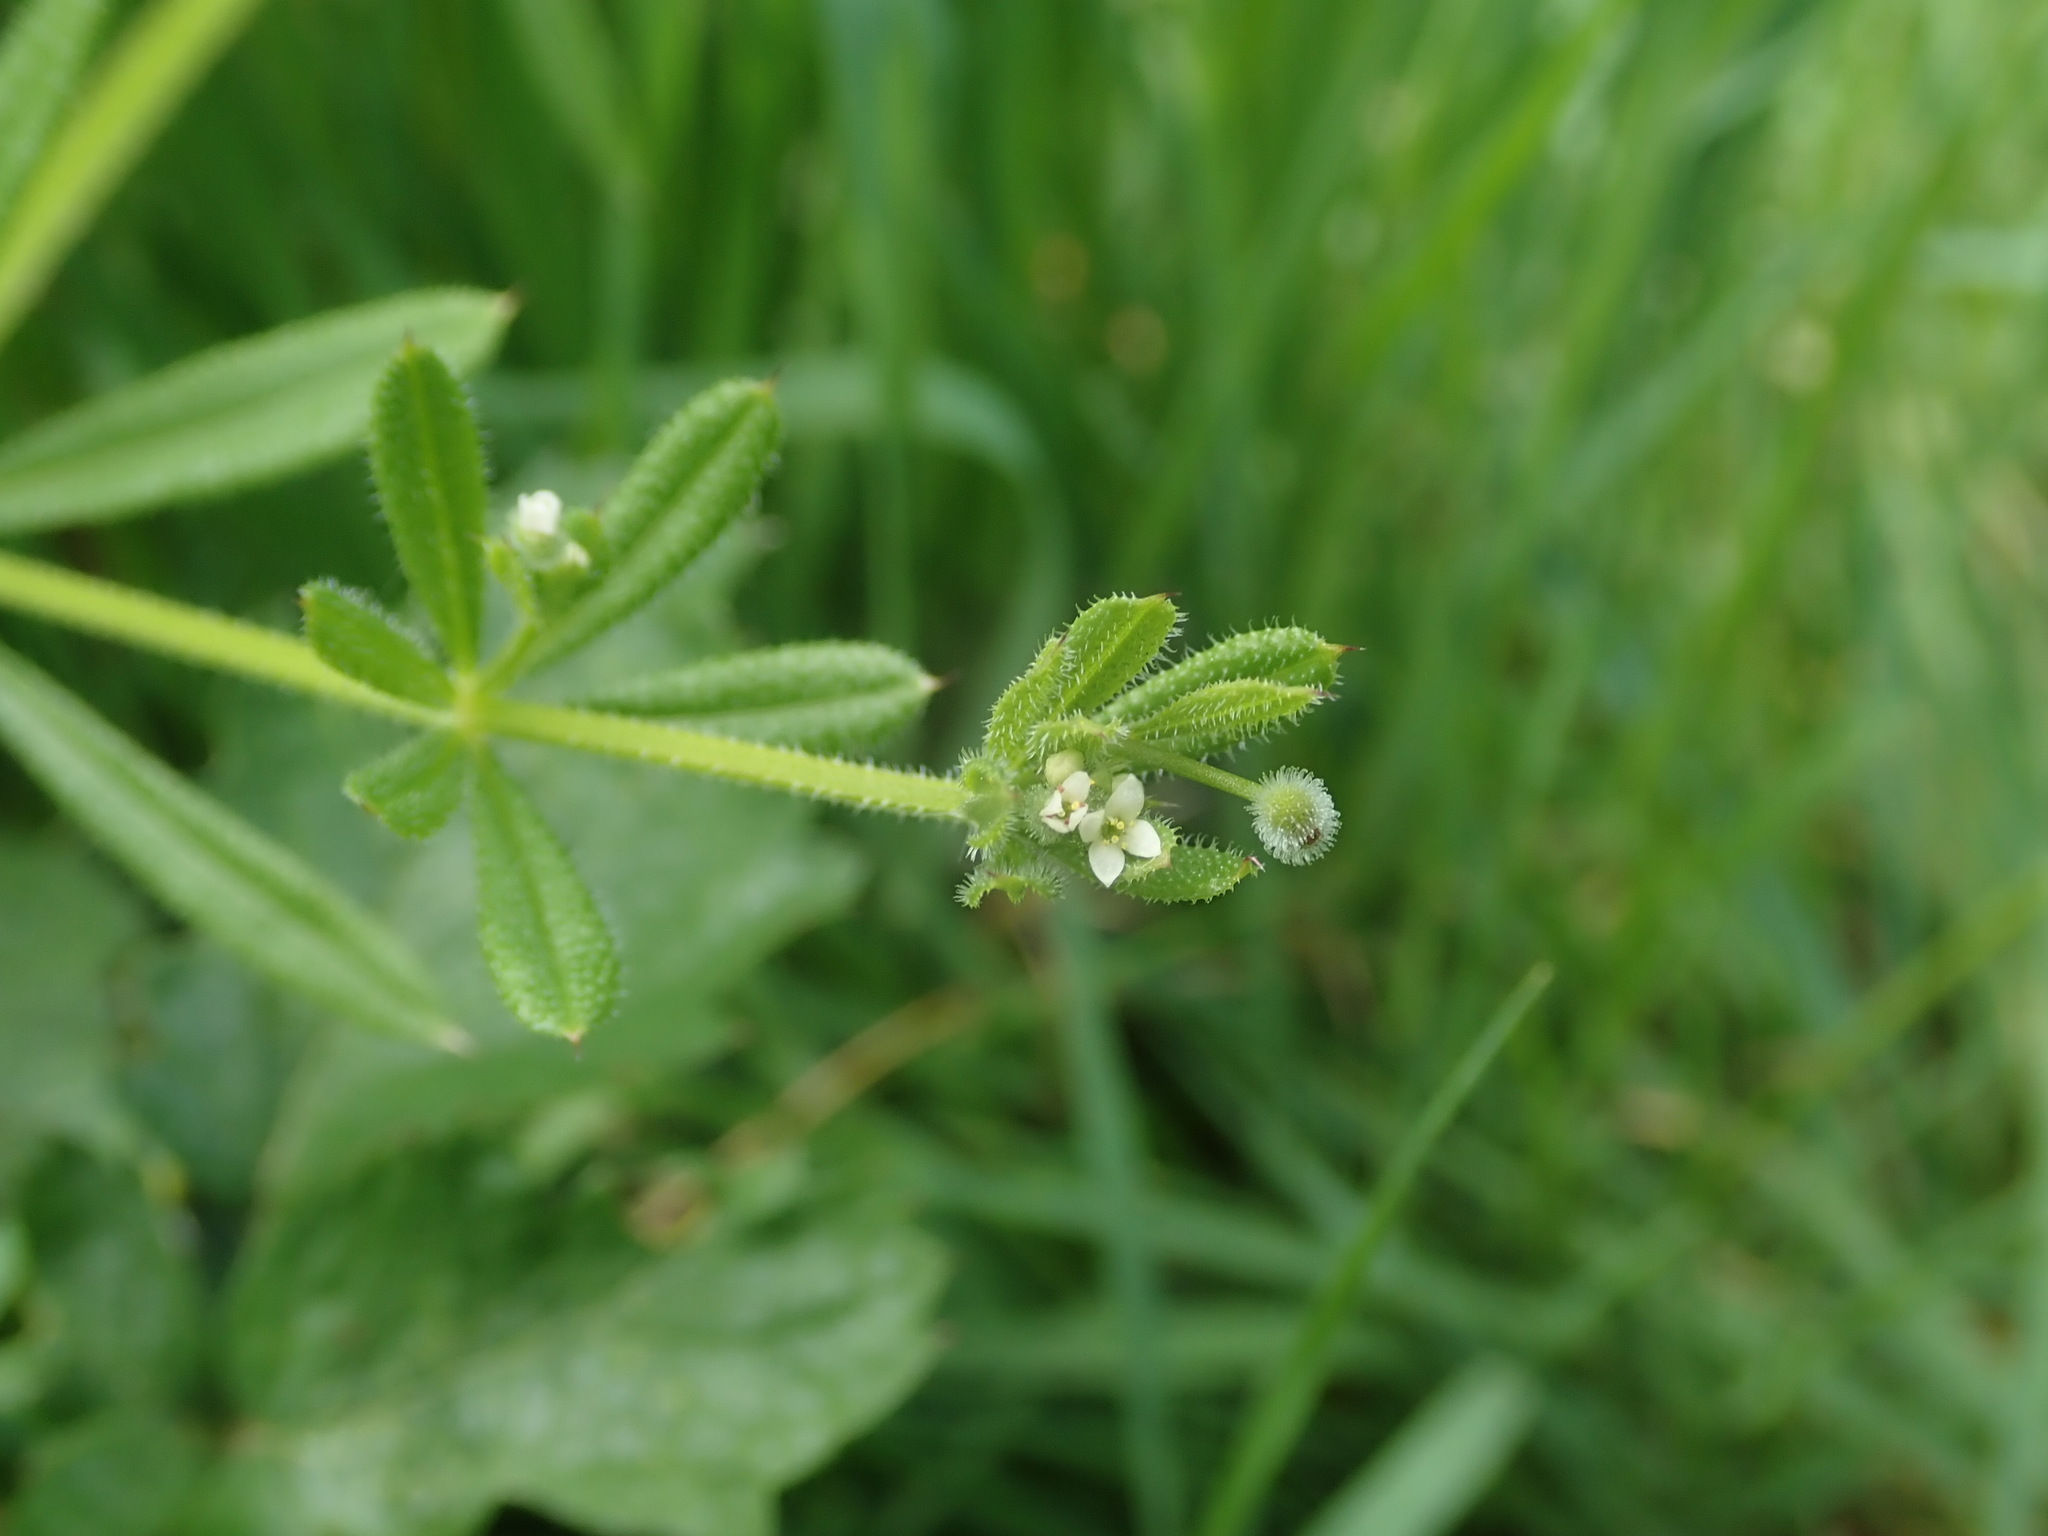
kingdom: Plantae
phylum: Tracheophyta
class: Magnoliopsida
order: Gentianales
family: Rubiaceae
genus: Galium
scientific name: Galium aparine
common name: Cleavers
